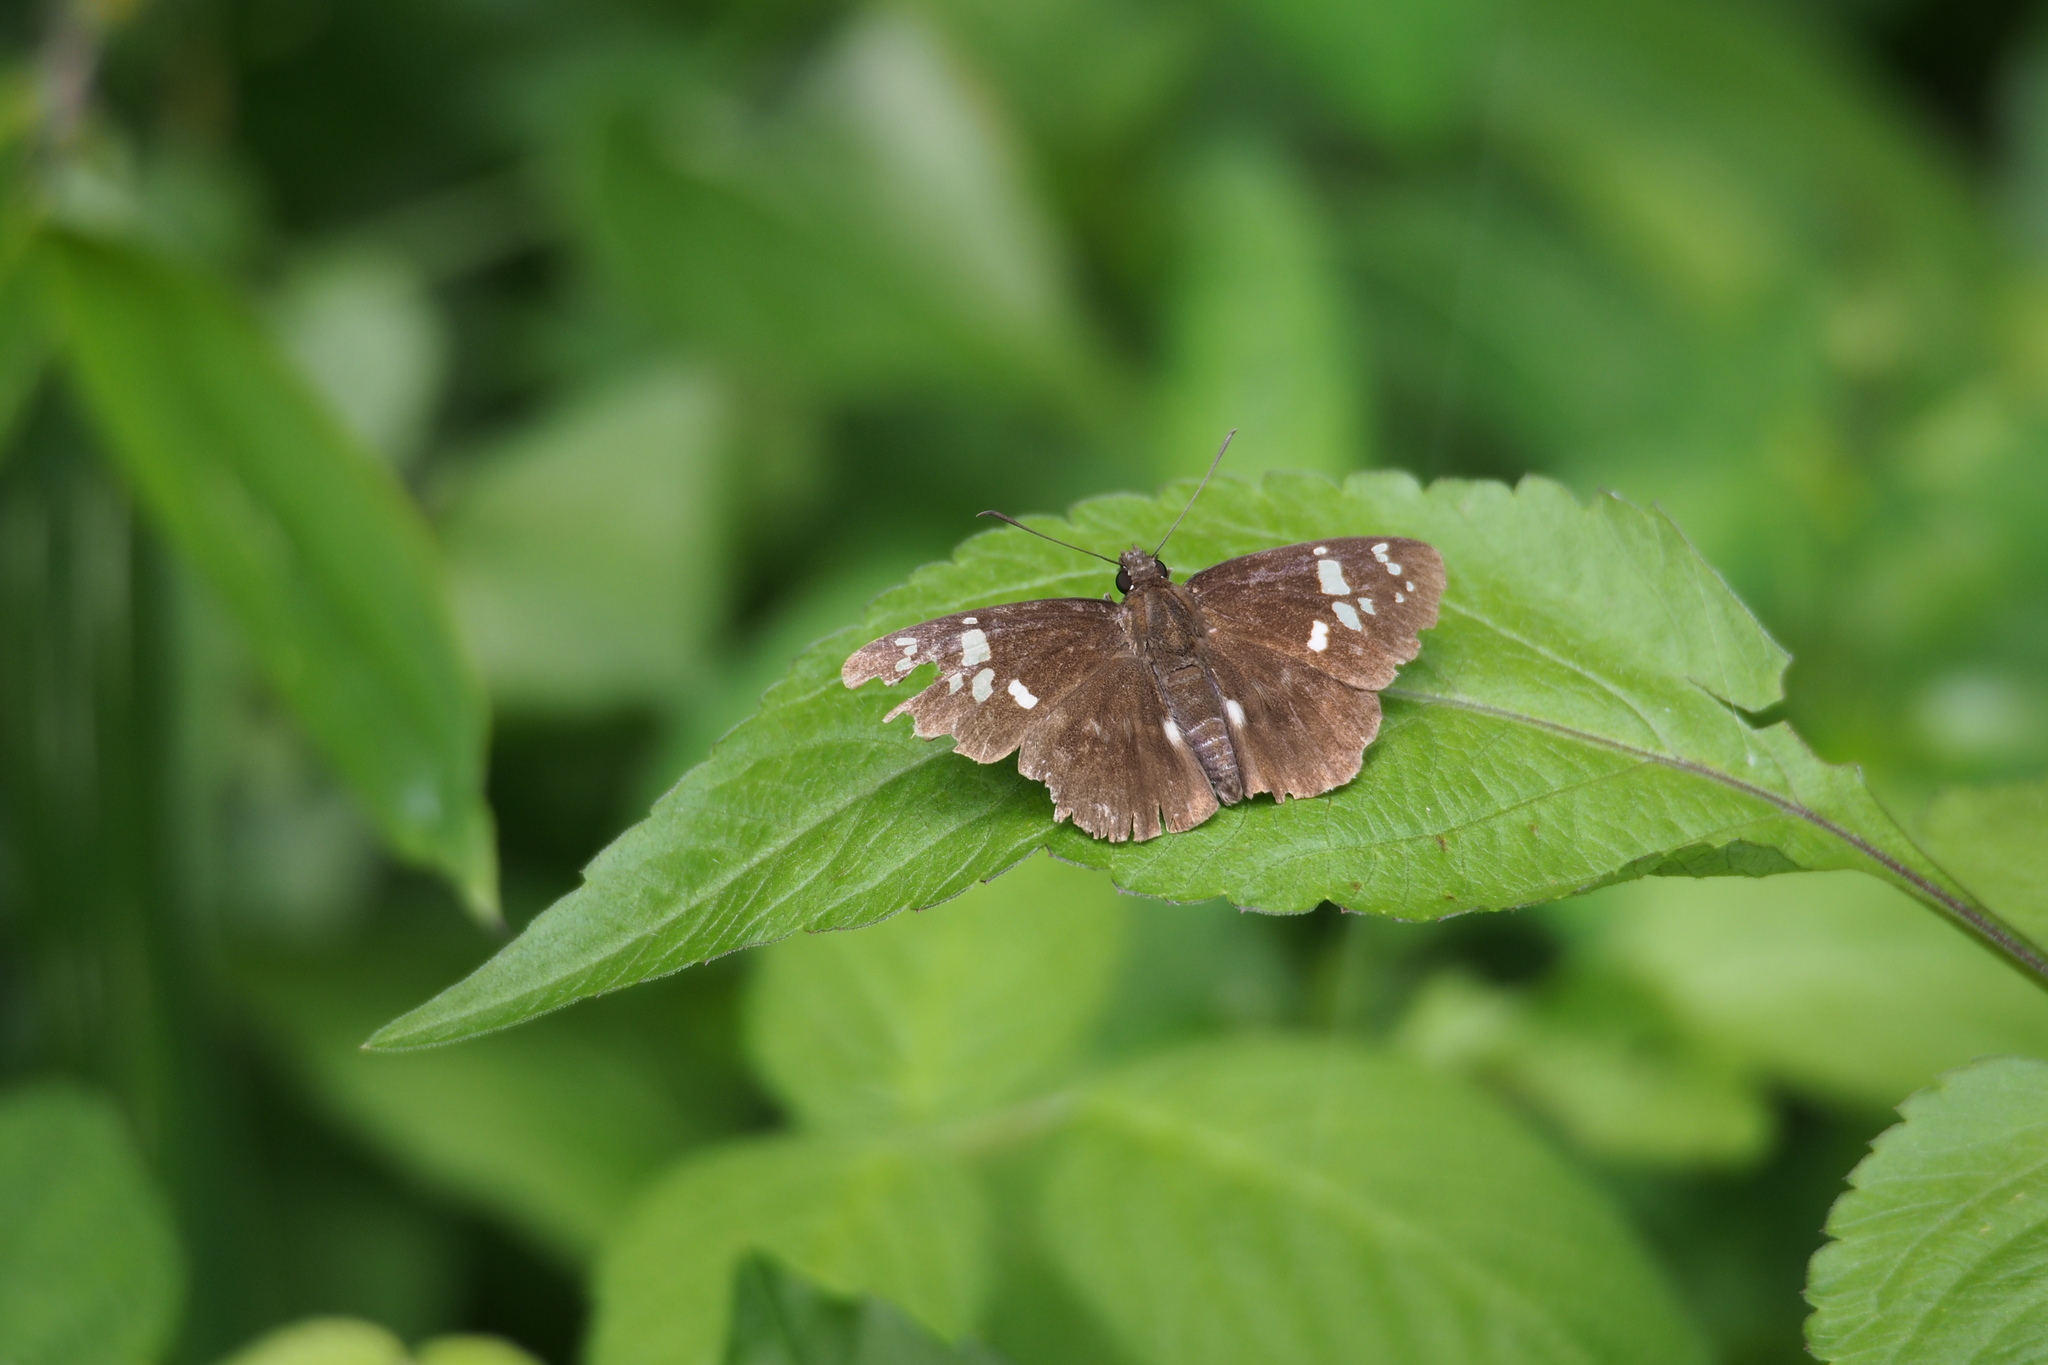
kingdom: Animalia
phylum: Arthropoda
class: Insecta
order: Lepidoptera
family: Hesperiidae
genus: Daimio
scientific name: Daimio tethys
